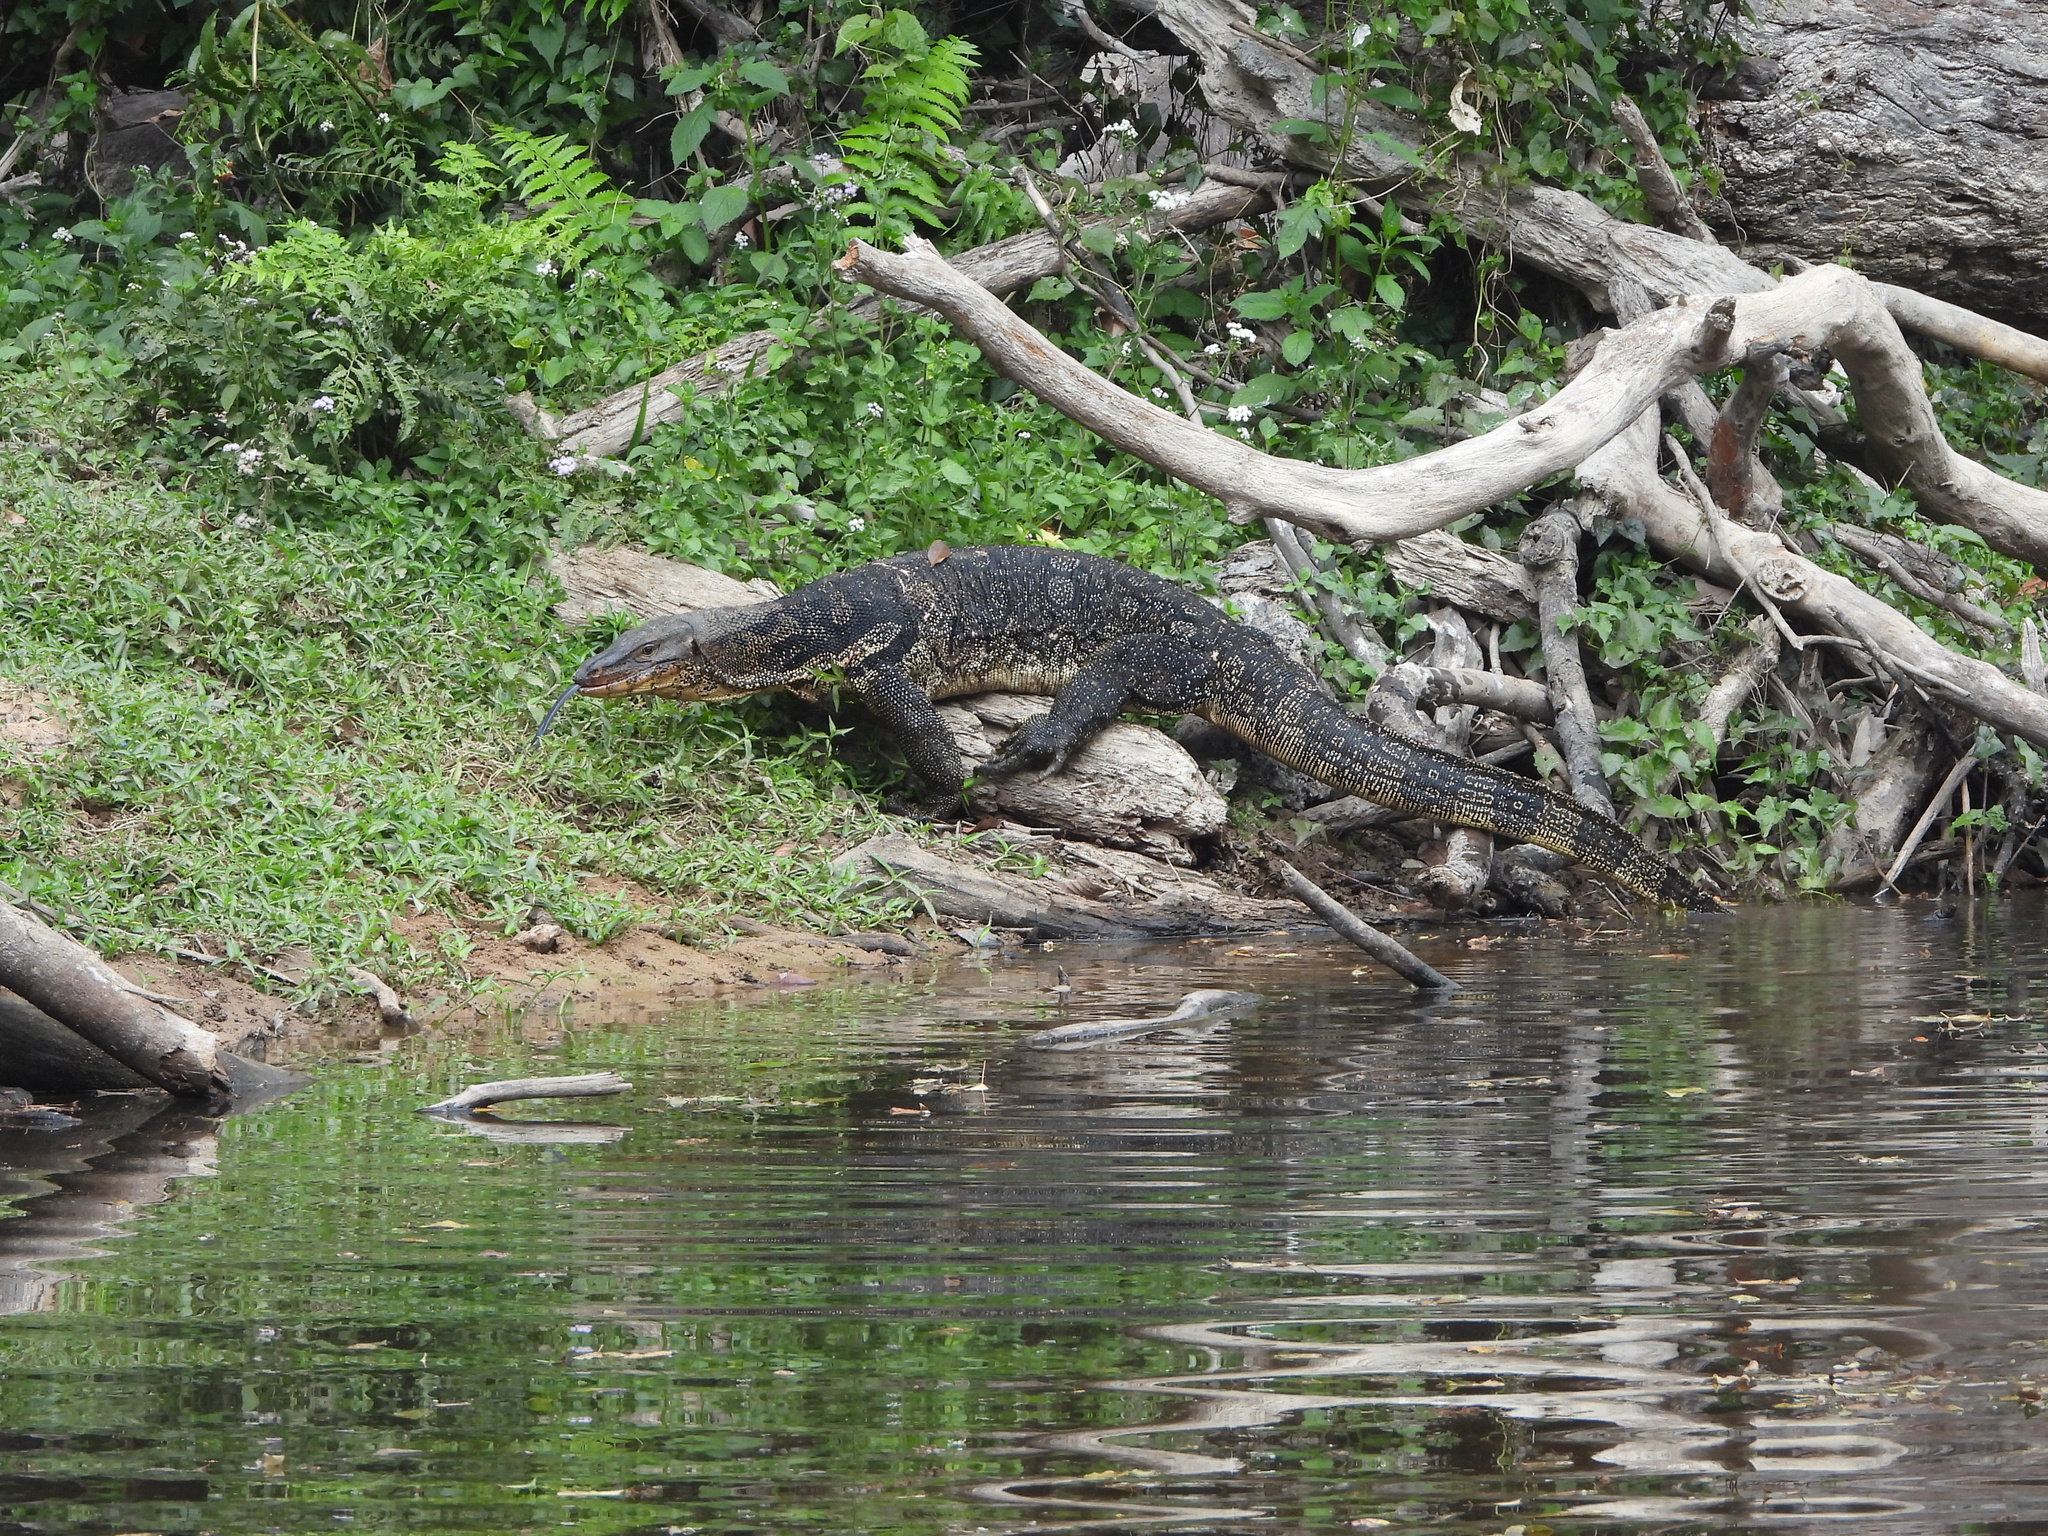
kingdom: Animalia
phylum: Chordata
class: Squamata
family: Varanidae
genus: Varanus
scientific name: Varanus salvator
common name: Common water monitor
